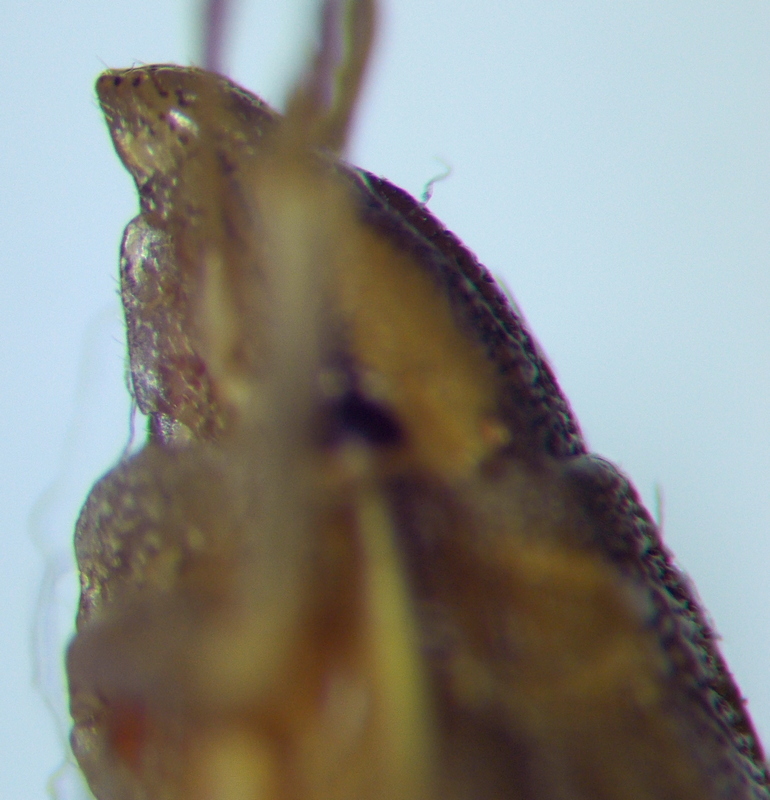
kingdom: Animalia
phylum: Arthropoda
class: Insecta
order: Hemiptera
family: Pentatomidae
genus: Aelia
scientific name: Aelia acuminata
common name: Bishop's mitre
